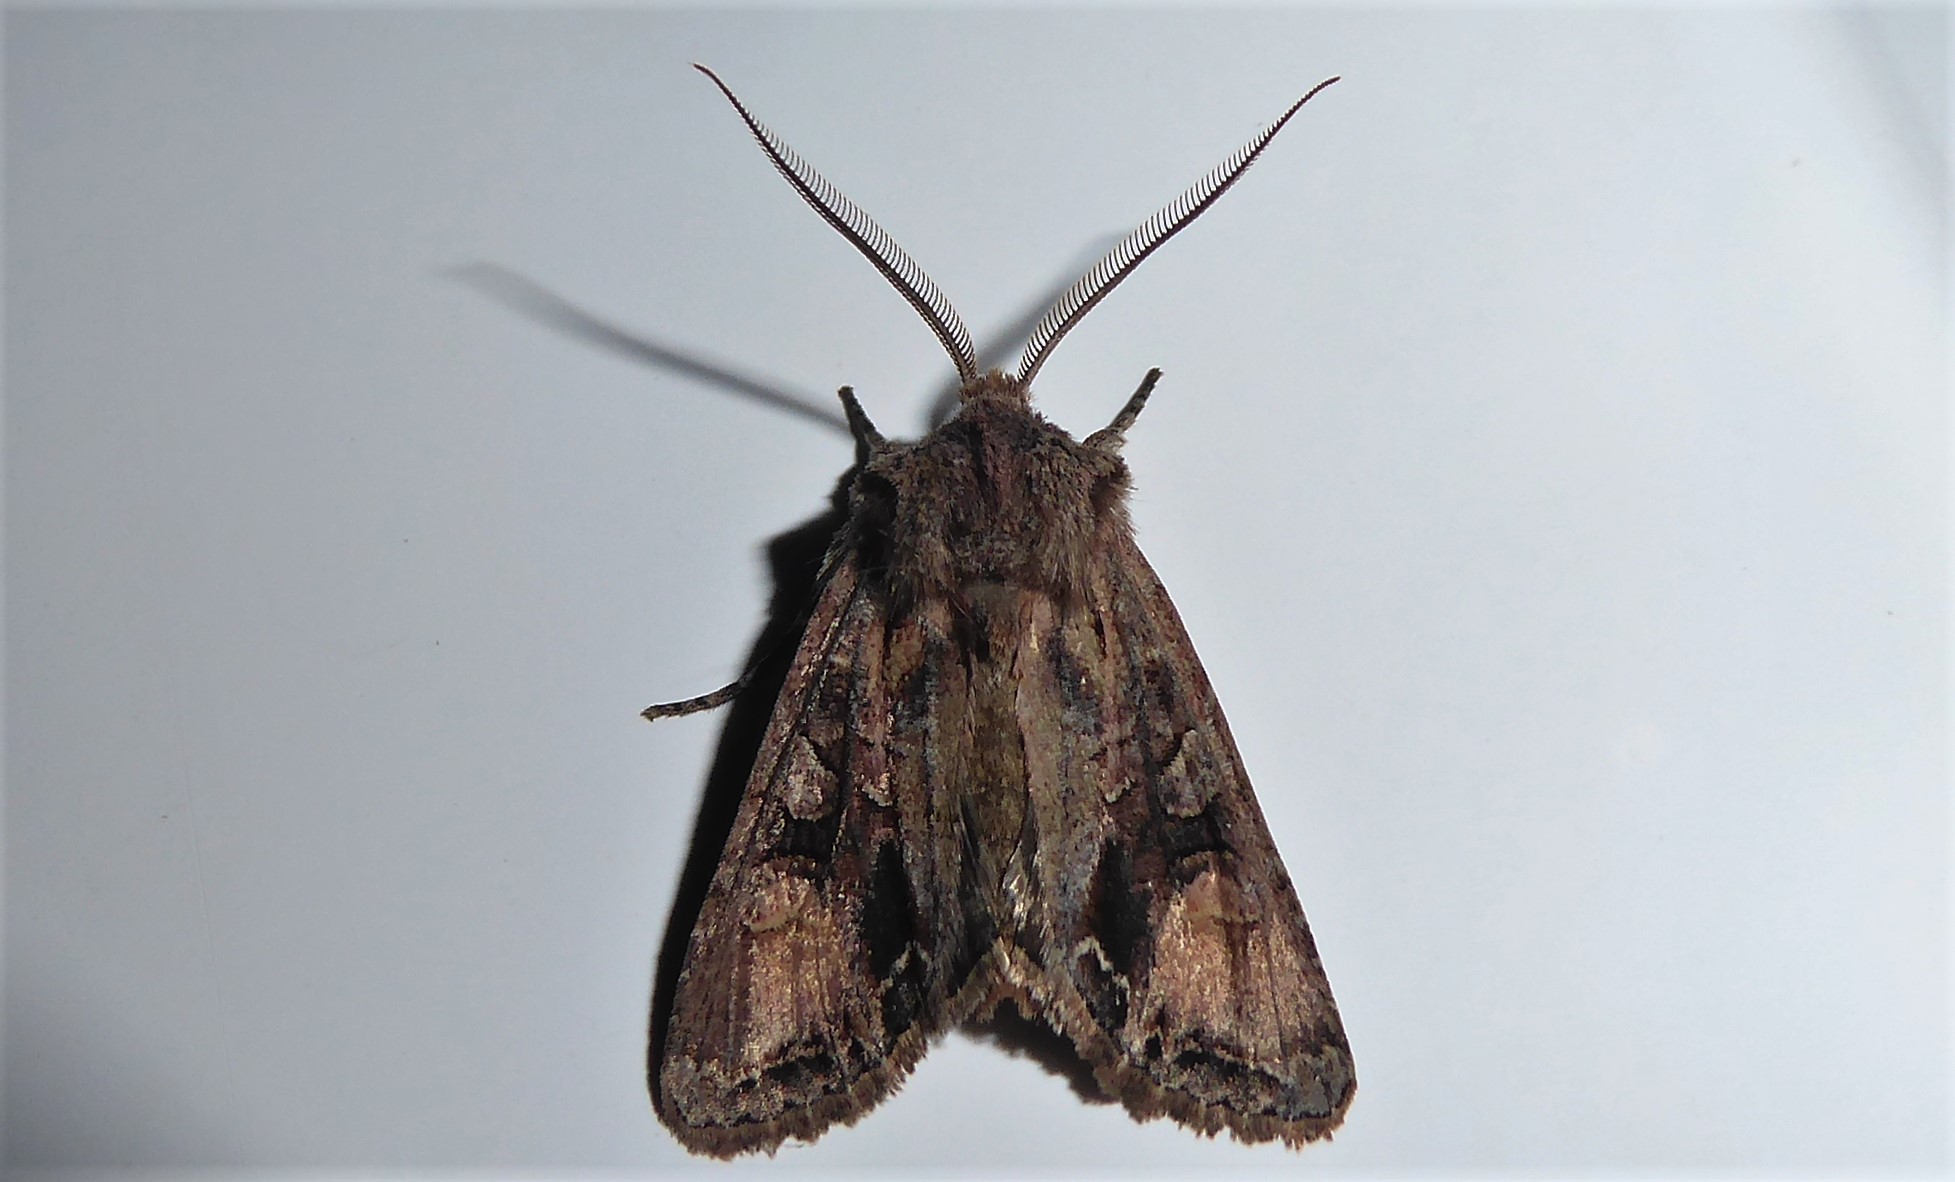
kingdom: Animalia
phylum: Arthropoda
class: Insecta
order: Lepidoptera
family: Noctuidae
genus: Ichneutica
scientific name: Ichneutica
